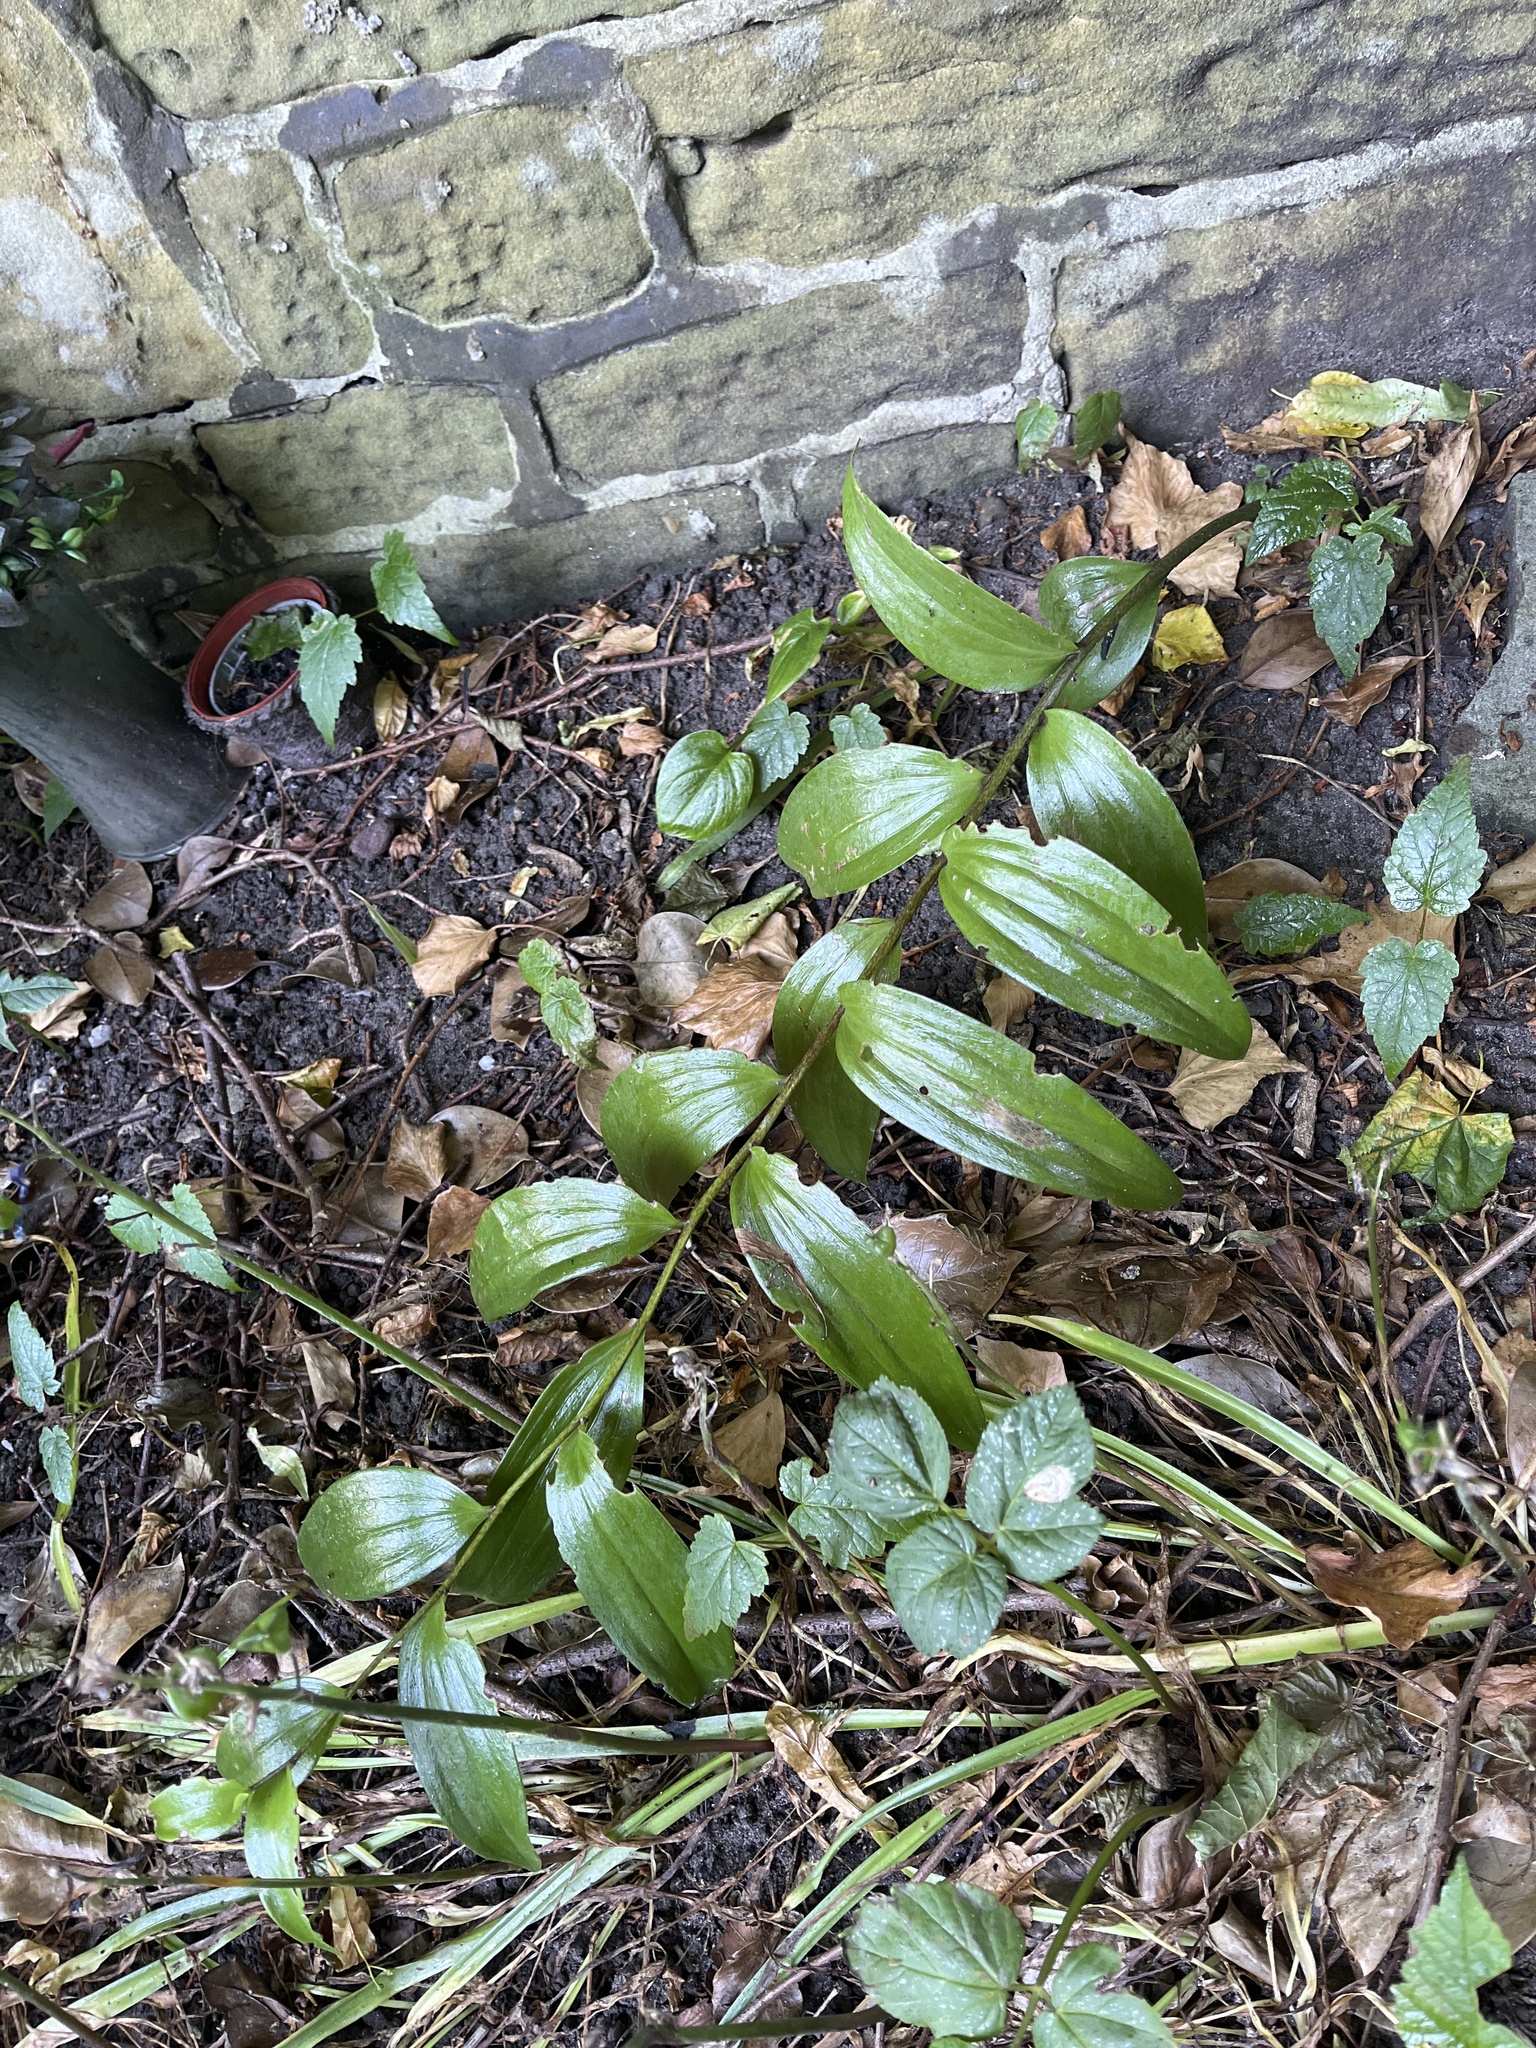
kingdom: Plantae
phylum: Tracheophyta
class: Liliopsida
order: Asparagales
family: Asparagaceae
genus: Polygonatum
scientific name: Polygonatum hybridum
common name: Garden solomon's-seal
